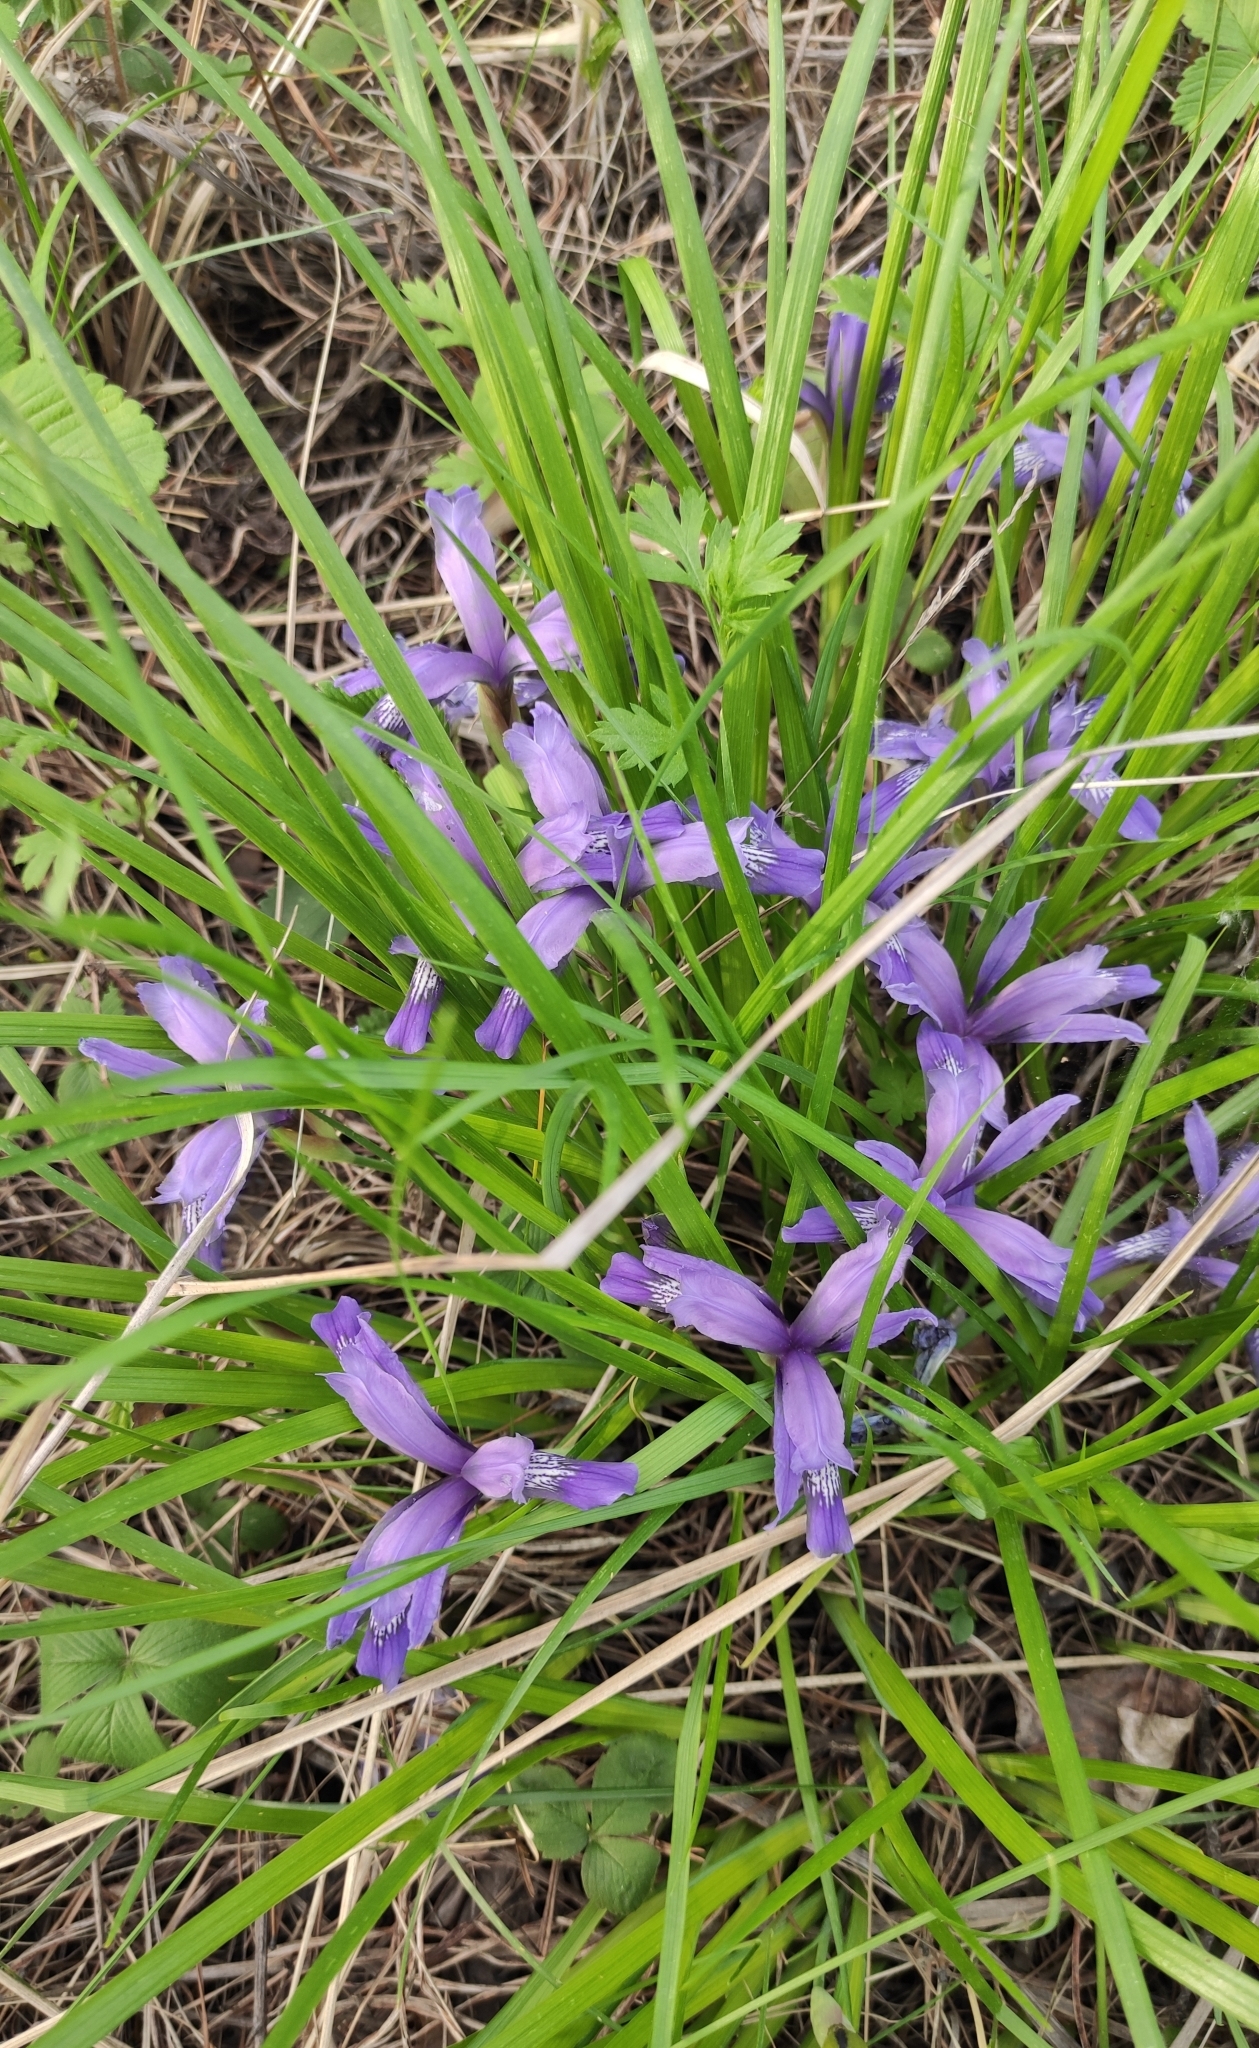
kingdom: Plantae
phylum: Tracheophyta
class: Liliopsida
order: Asparagales
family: Iridaceae
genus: Iris
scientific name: Iris ruthenica
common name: Purple-bract iris
